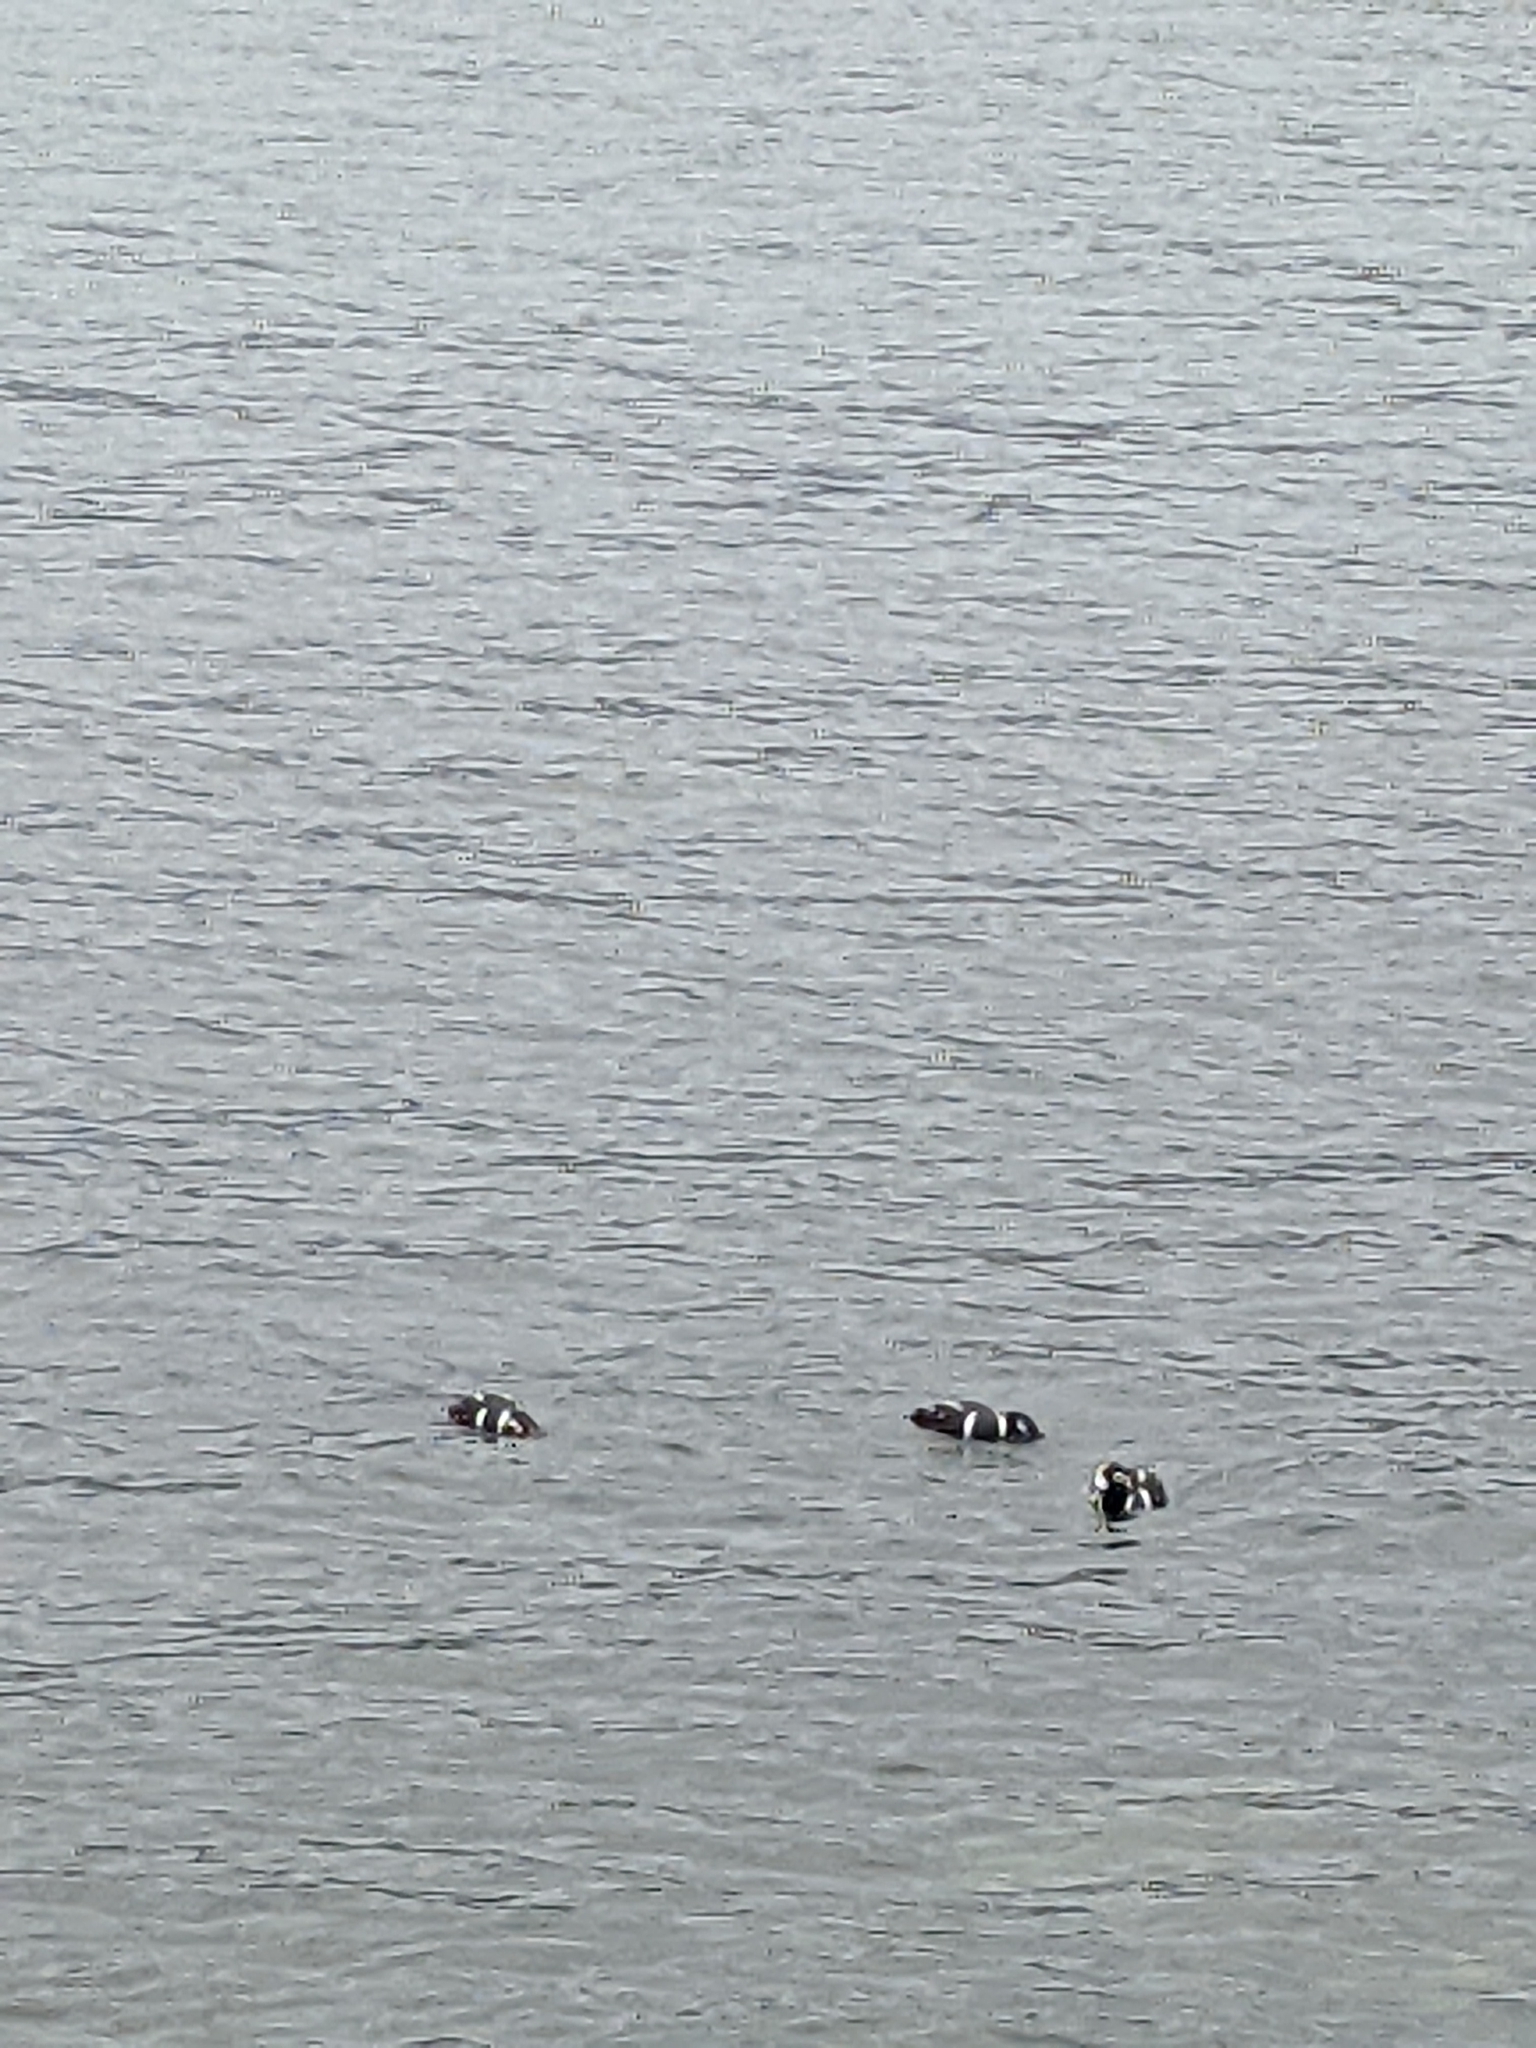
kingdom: Animalia
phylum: Chordata
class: Aves
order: Anseriformes
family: Anatidae
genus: Histrionicus
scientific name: Histrionicus histrionicus
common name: Harlequin duck
